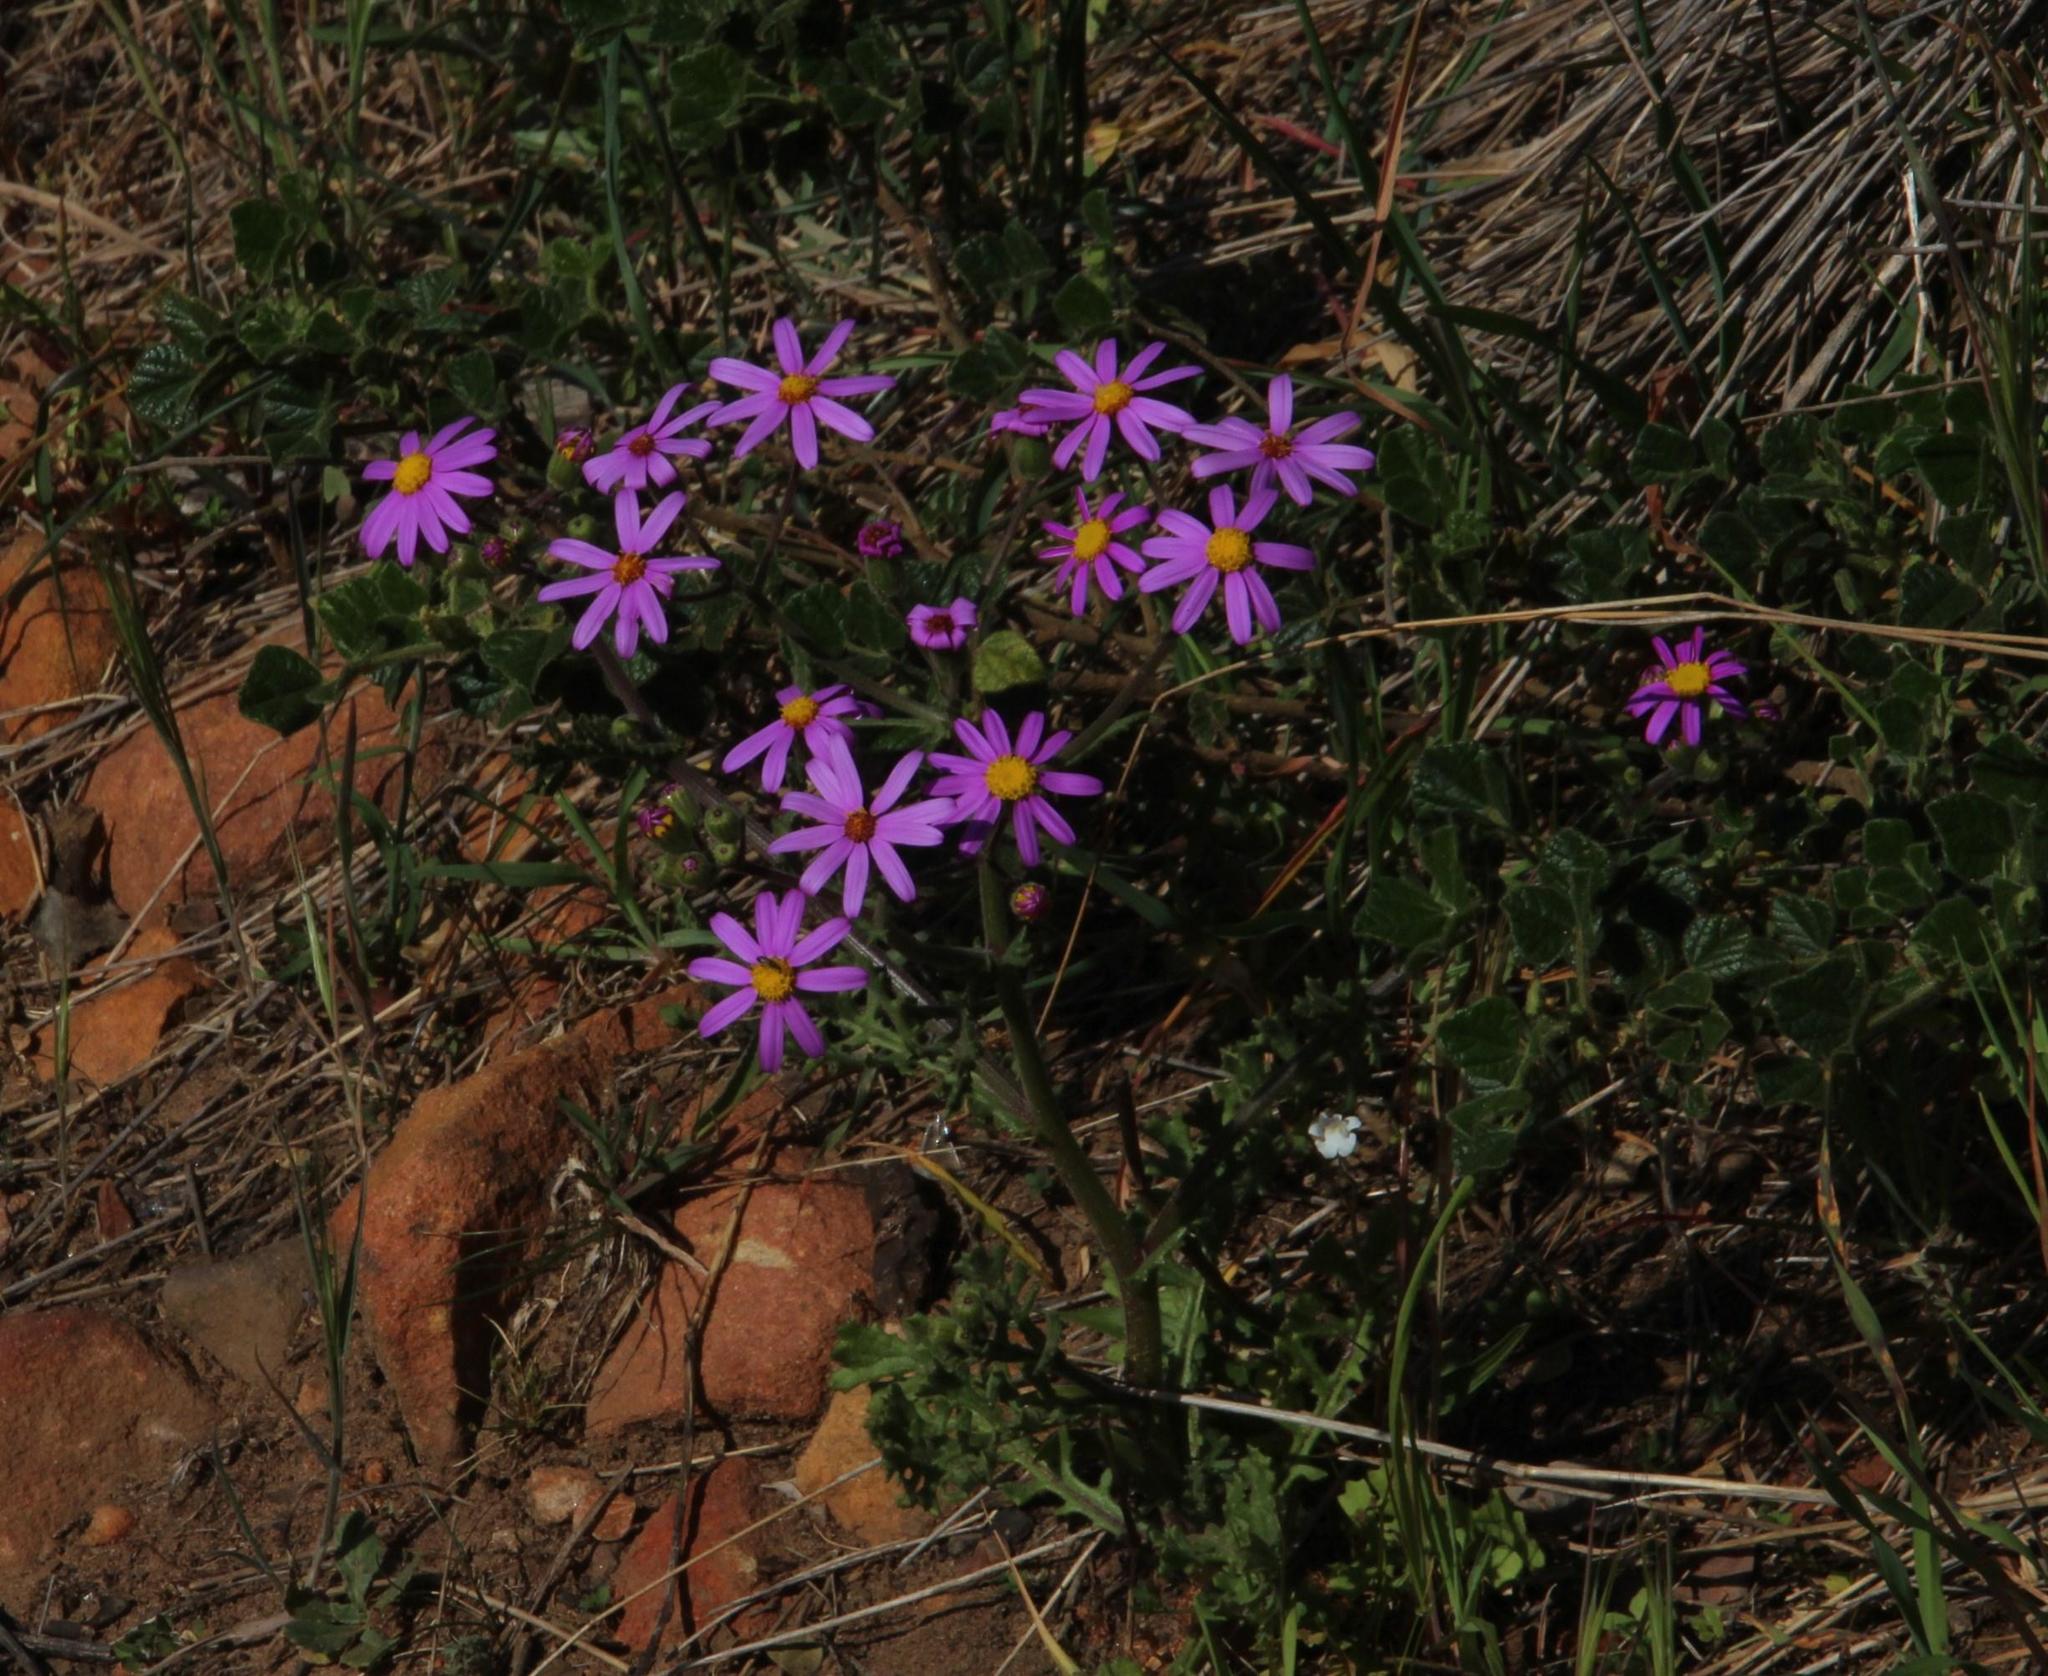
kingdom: Plantae
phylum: Tracheophyta
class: Magnoliopsida
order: Asterales
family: Asteraceae
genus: Senecio
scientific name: Senecio arenarius
